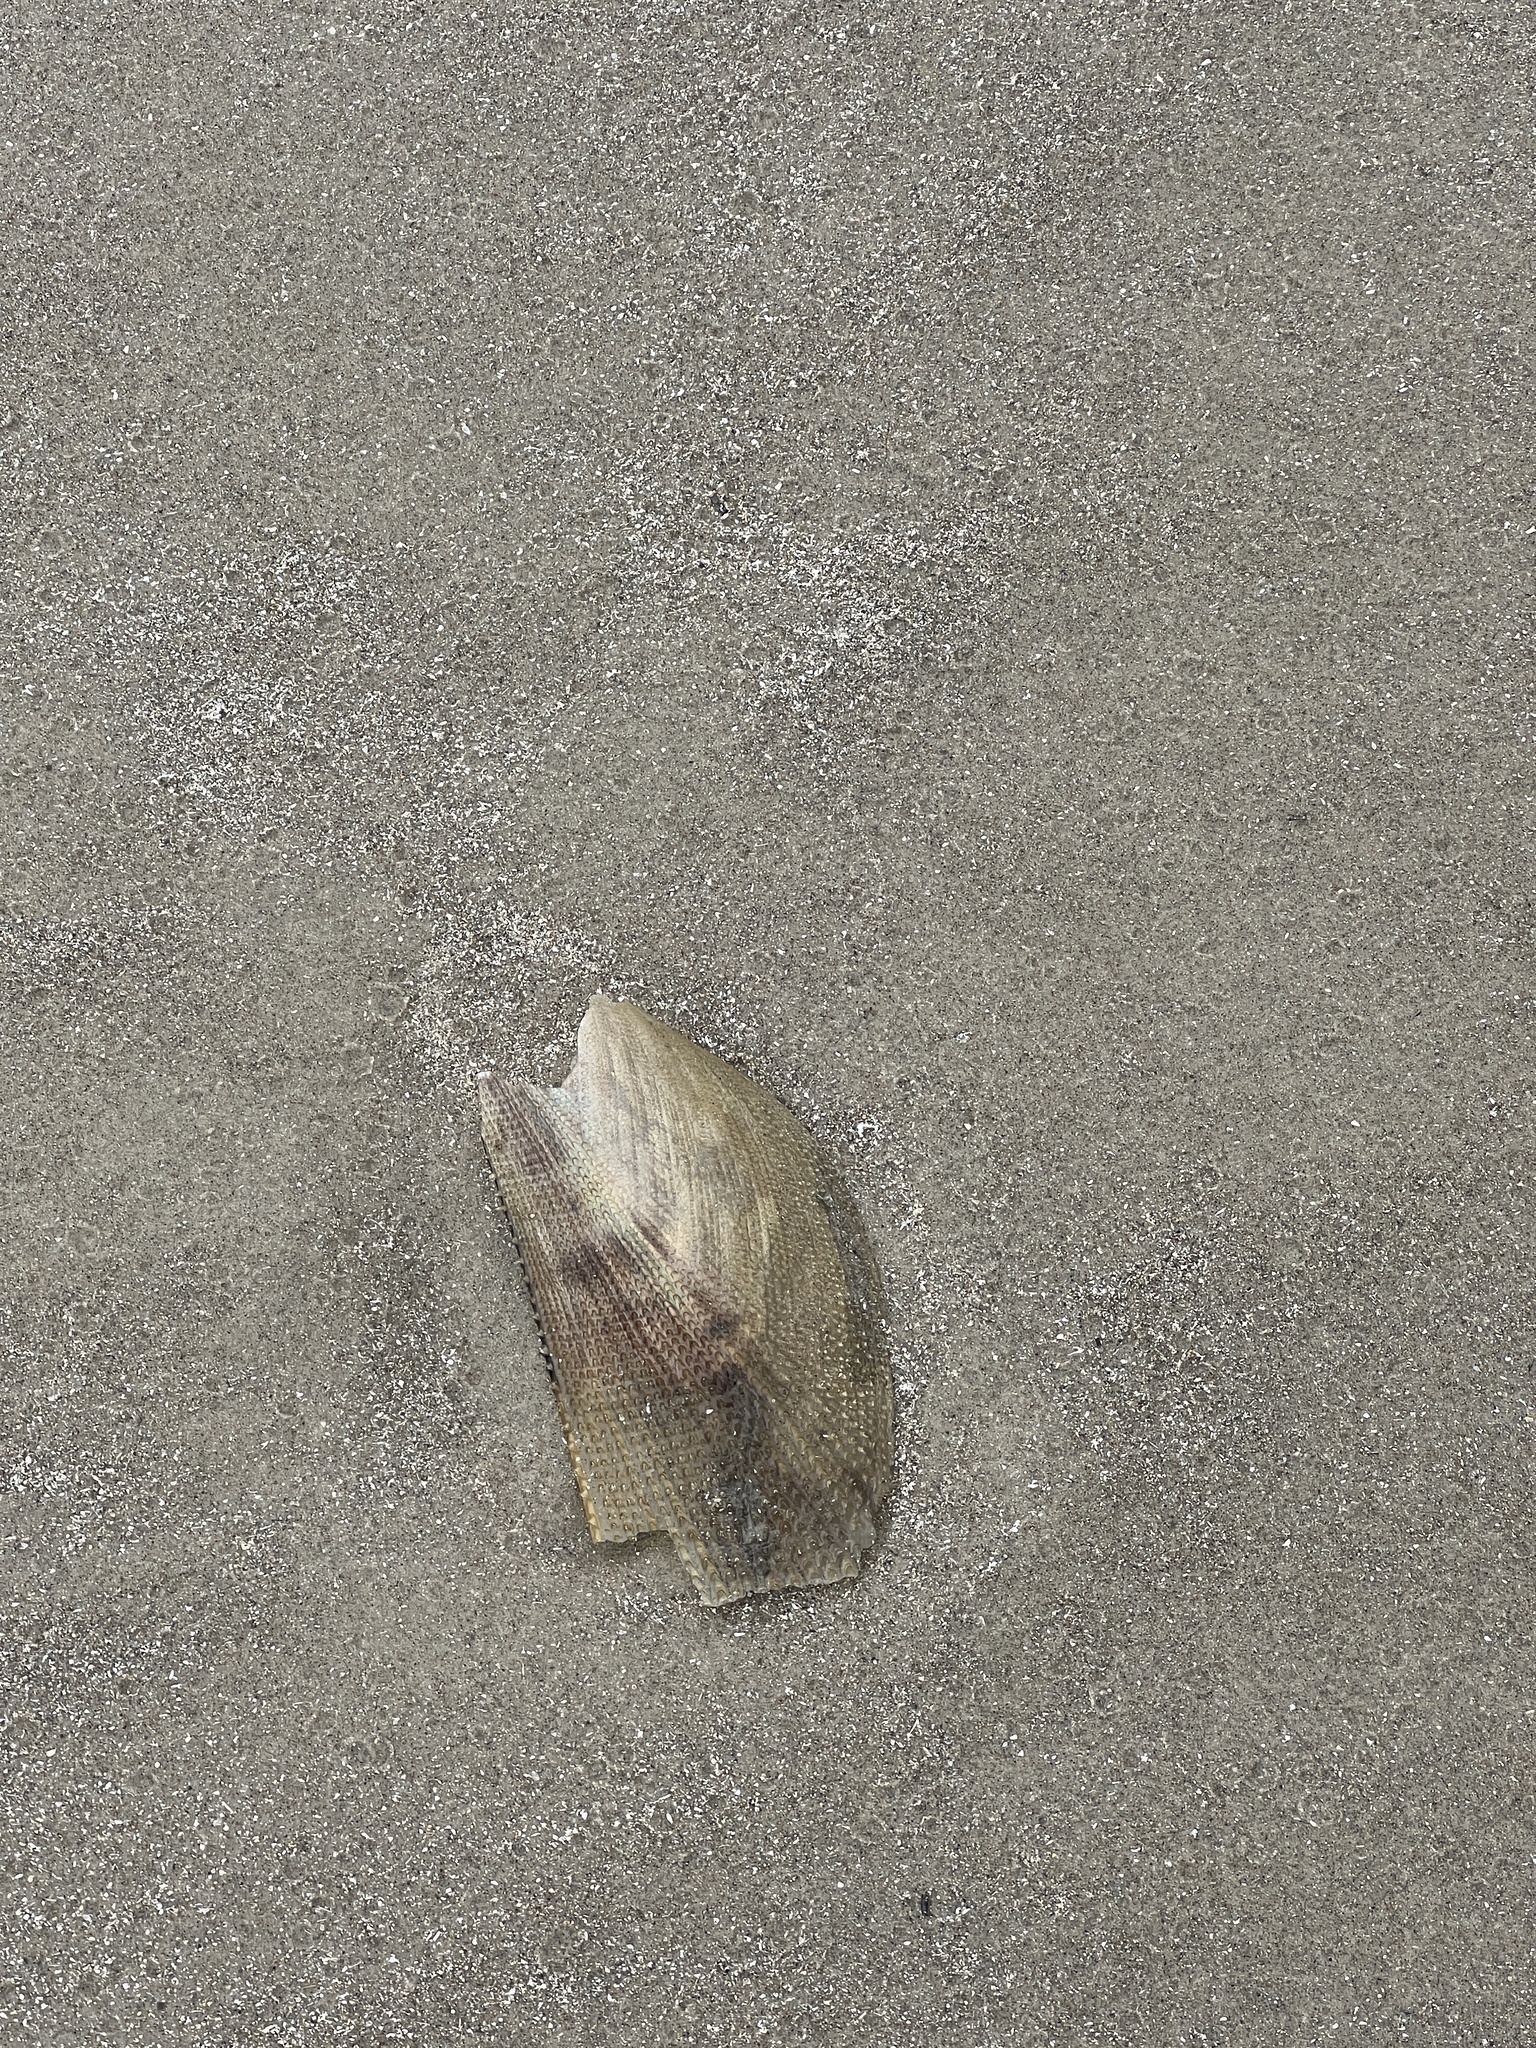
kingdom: Animalia
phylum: Mollusca
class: Bivalvia
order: Ostreida
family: Pinnidae
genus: Atrina
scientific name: Atrina serrata
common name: Saw-toothed penshell
